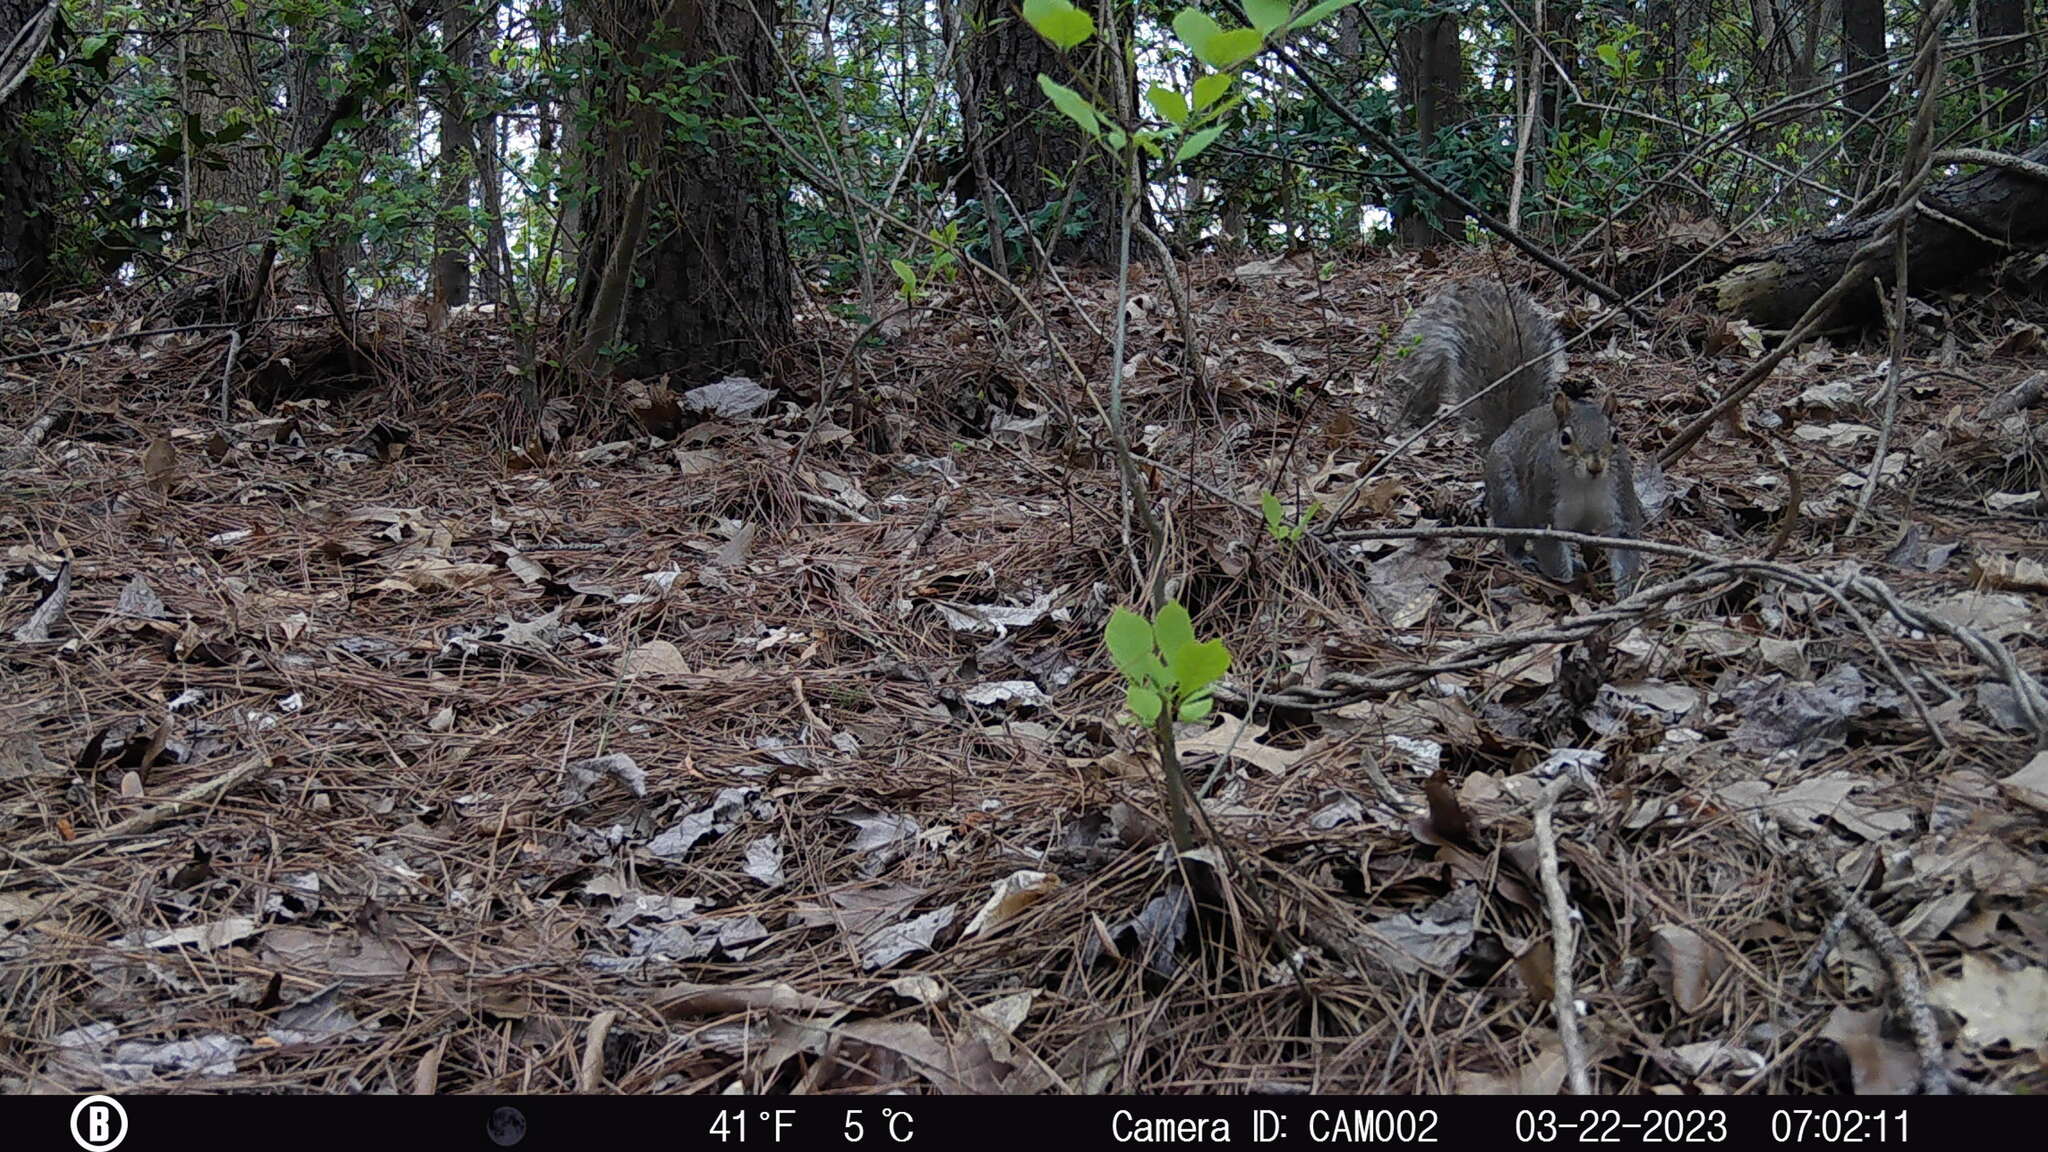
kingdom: Animalia
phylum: Chordata
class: Mammalia
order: Rodentia
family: Sciuridae
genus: Sciurus
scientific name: Sciurus carolinensis
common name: Eastern gray squirrel
